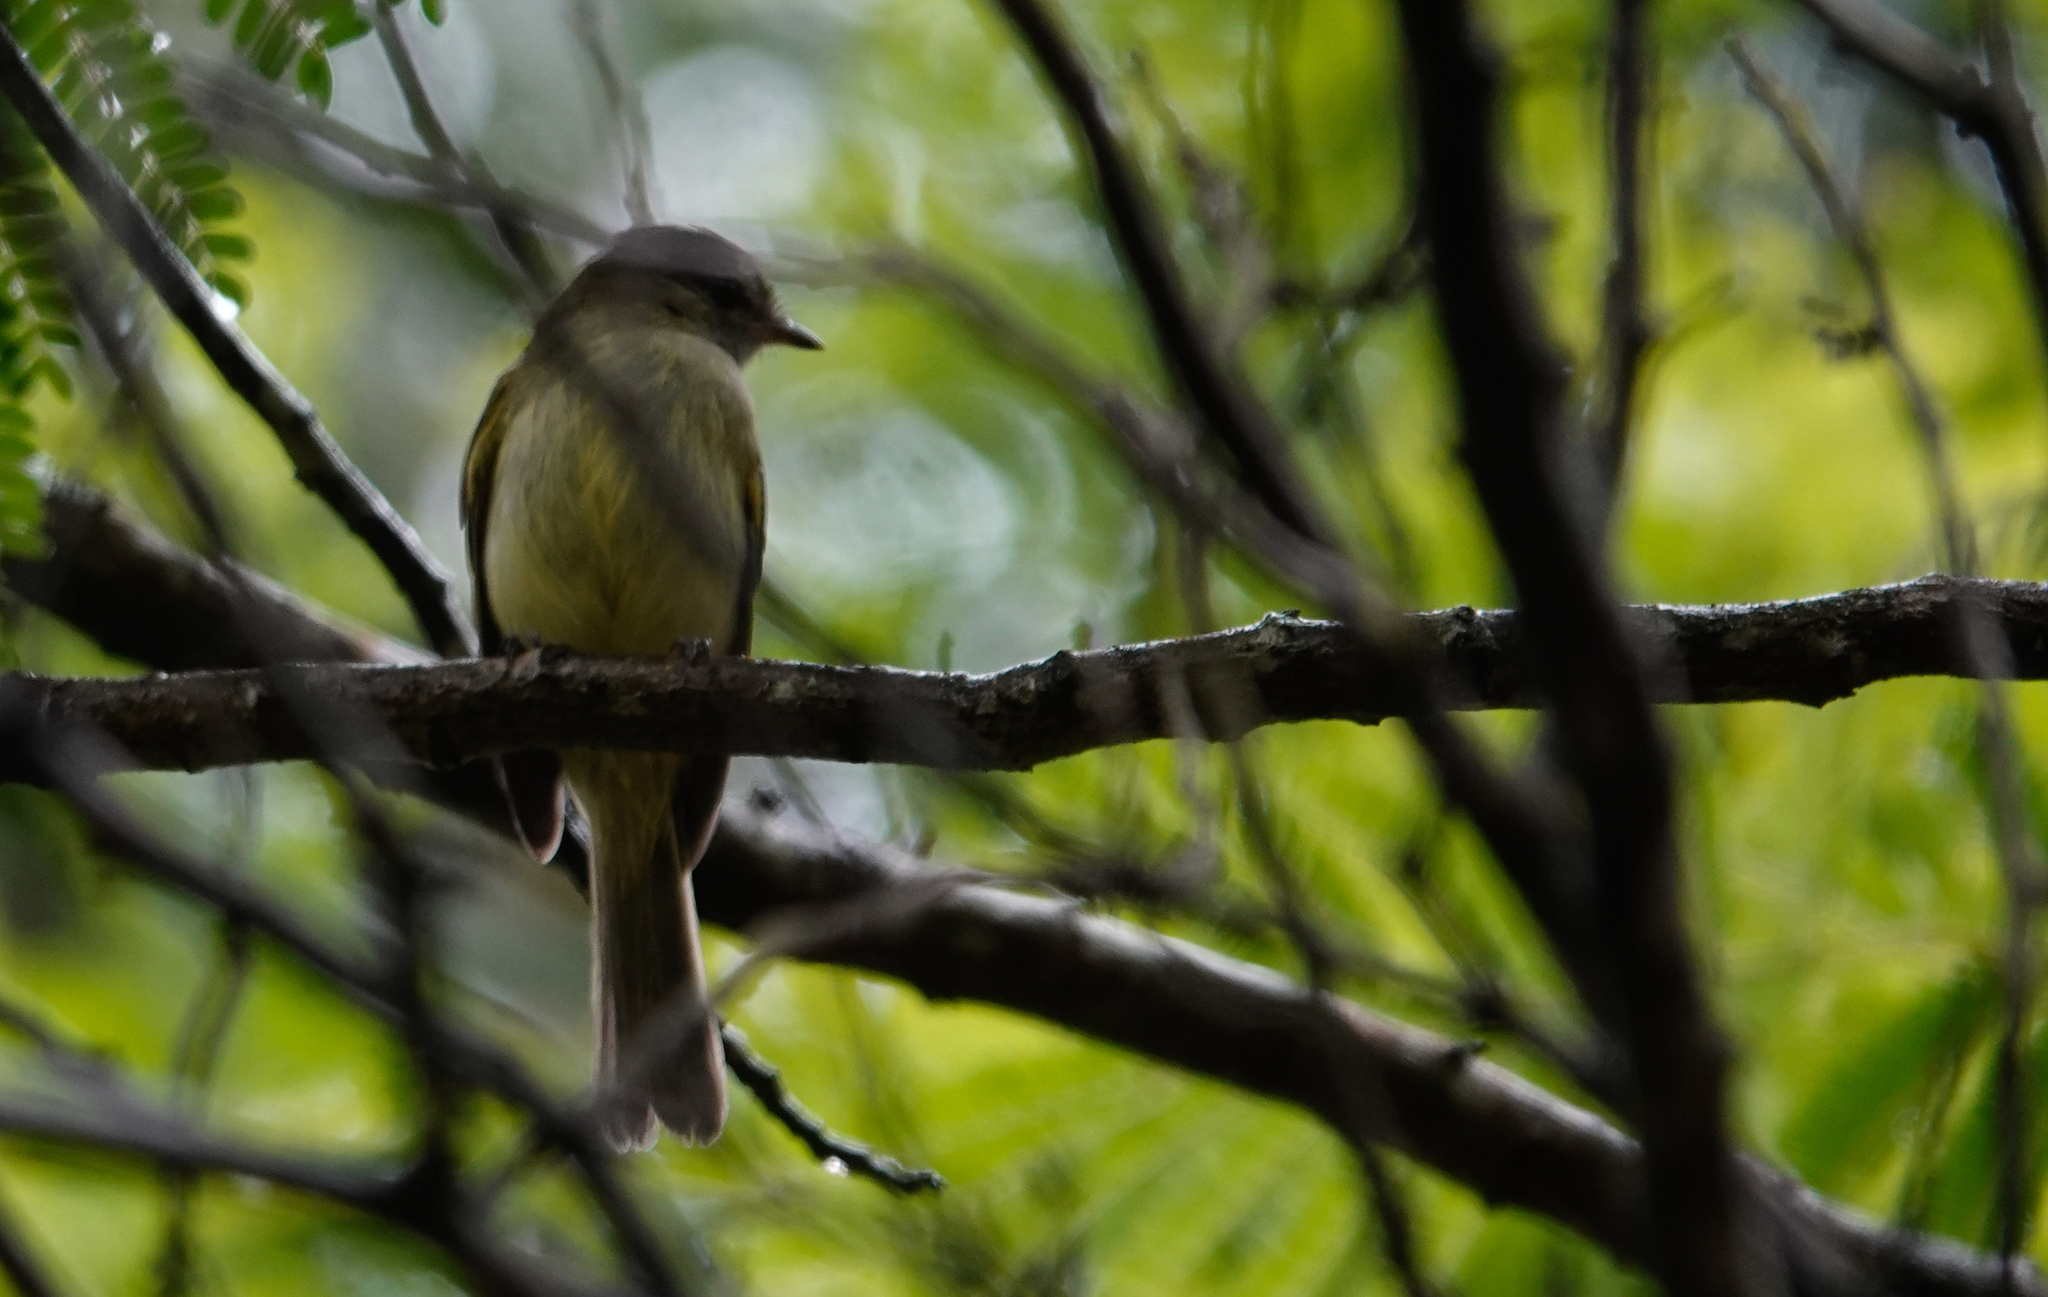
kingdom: Animalia
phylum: Chordata
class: Aves
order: Passeriformes
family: Tyrannidae
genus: Myiopagis
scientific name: Myiopagis viridicata
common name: Greenish elaenia
